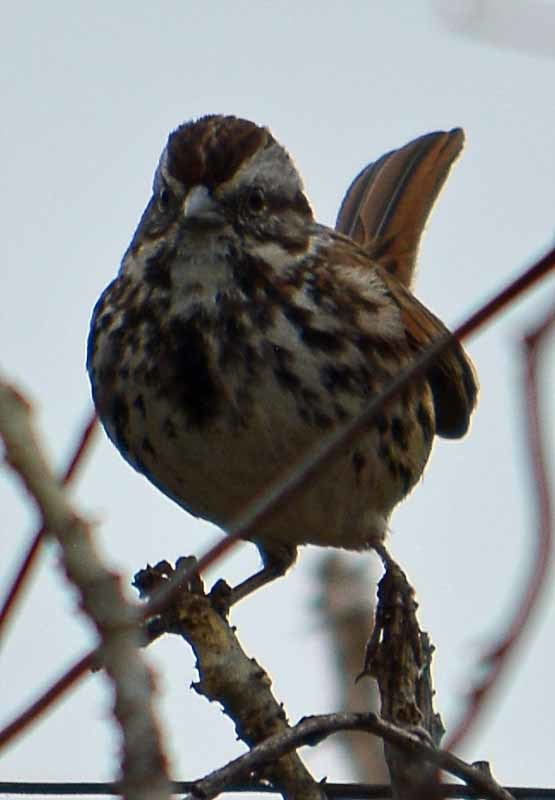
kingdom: Animalia
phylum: Chordata
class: Aves
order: Passeriformes
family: Passerellidae
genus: Melospiza
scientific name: Melospiza melodia
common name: Song sparrow
